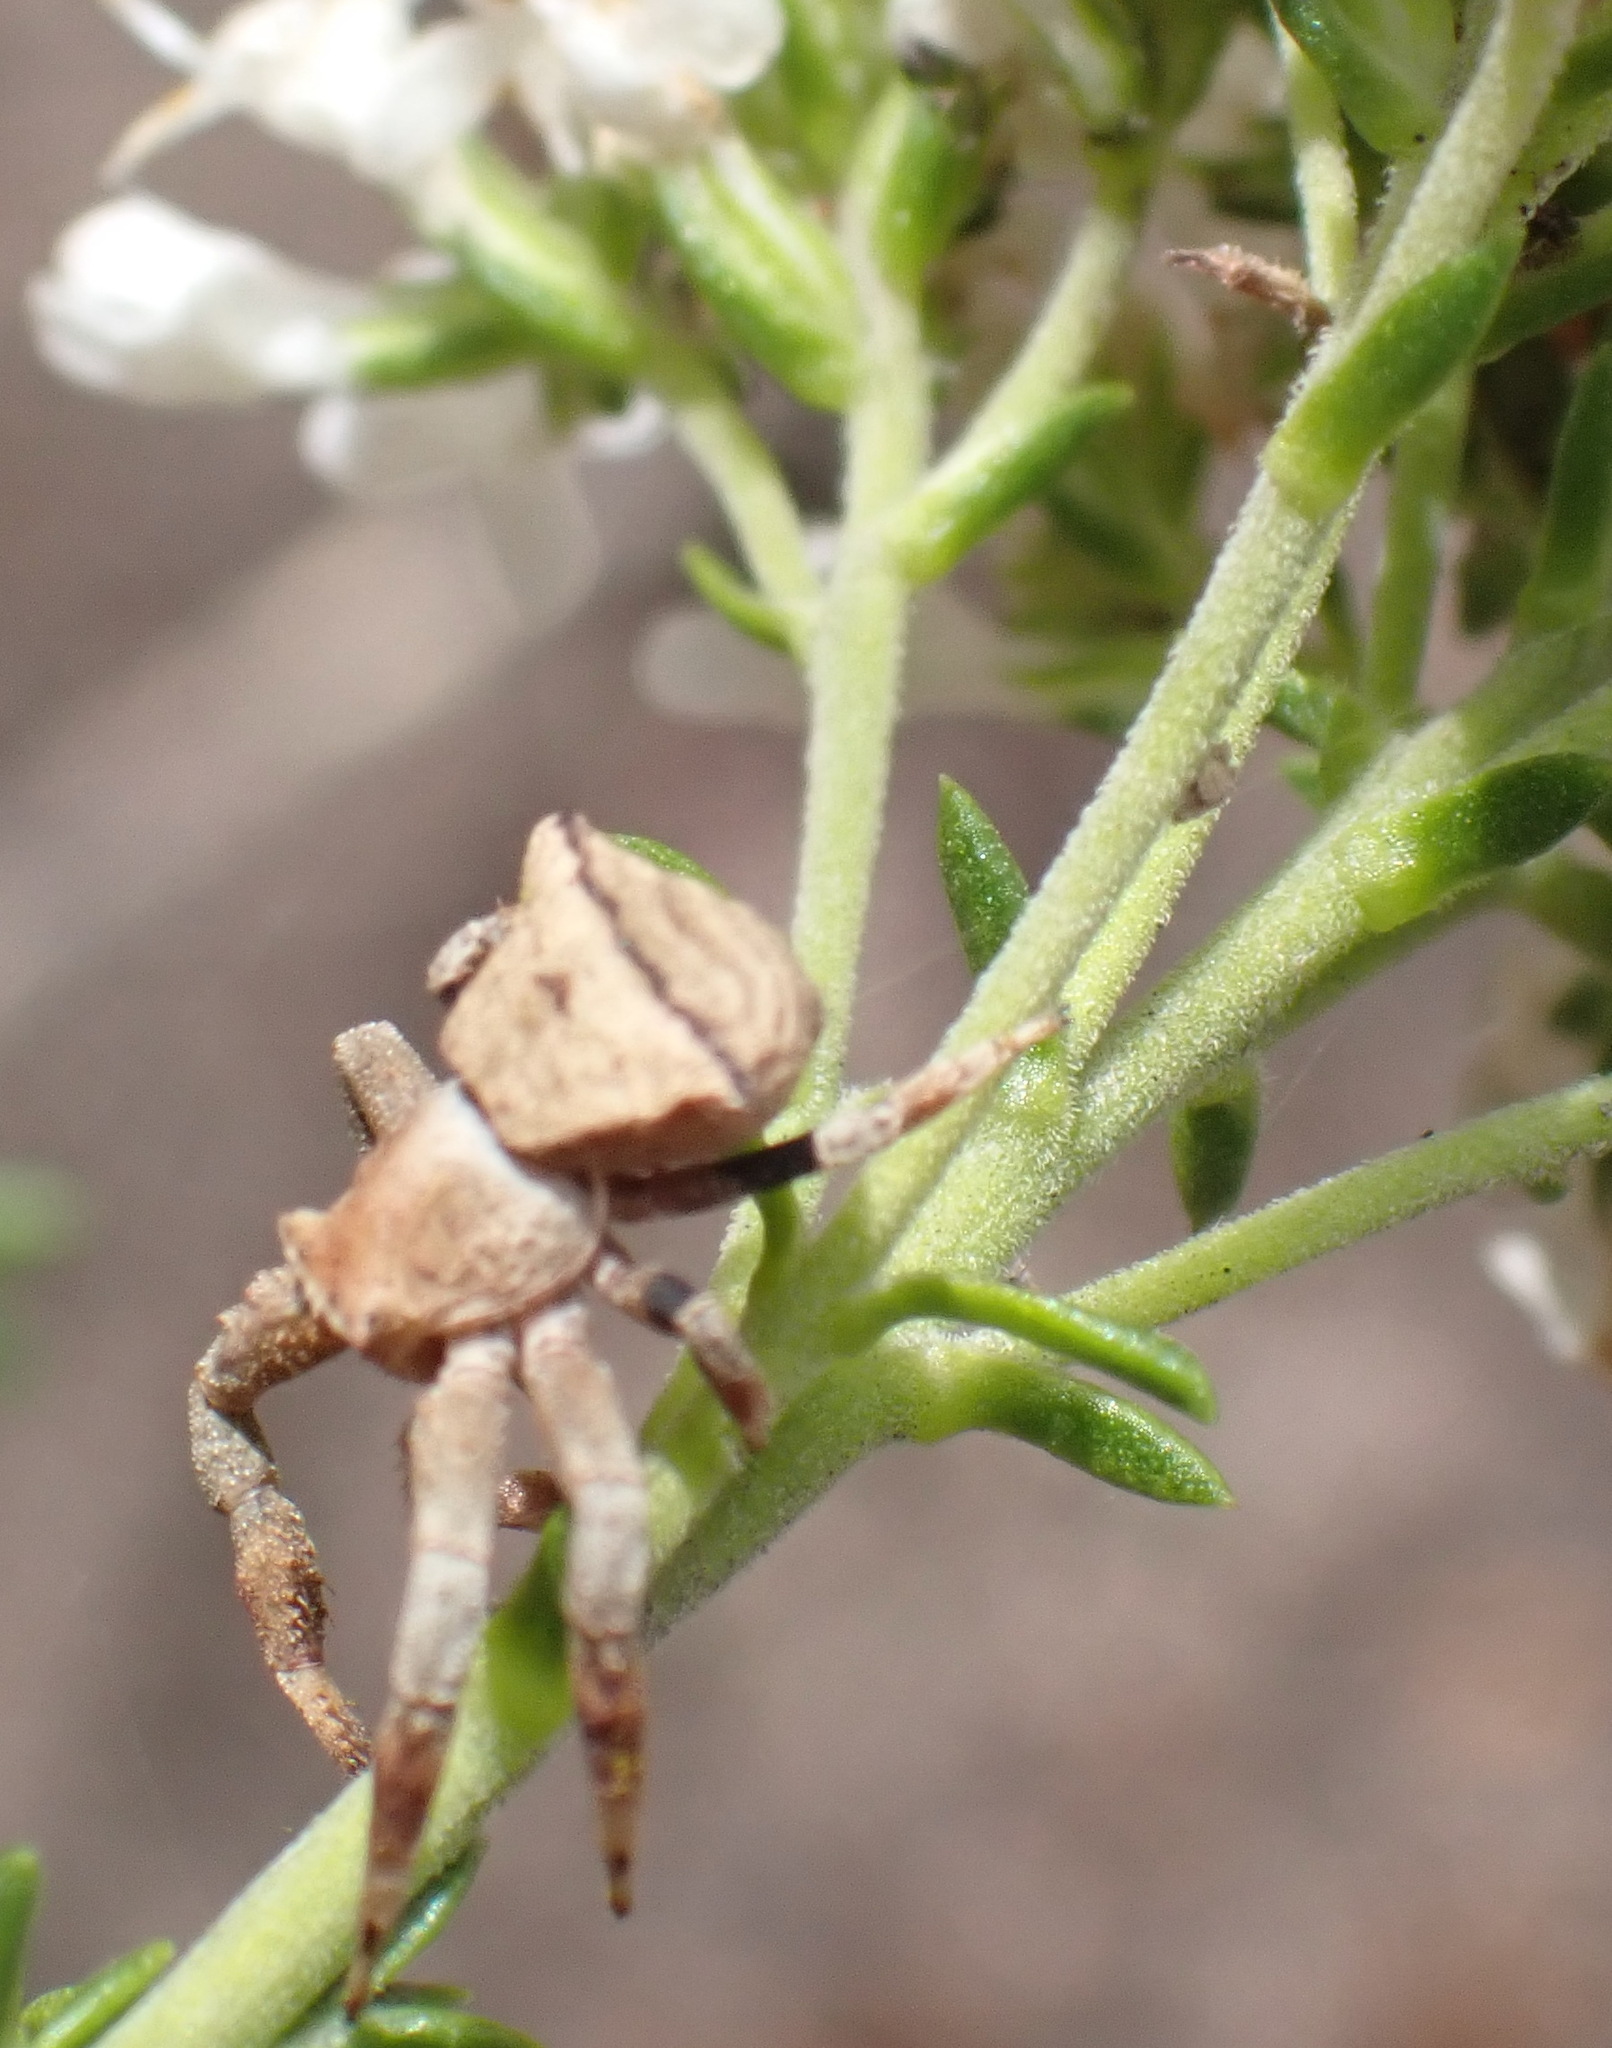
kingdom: Animalia
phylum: Arthropoda
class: Arachnida
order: Araneae
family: Thomisidae
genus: Thomisus
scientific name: Thomisus scrupeus
